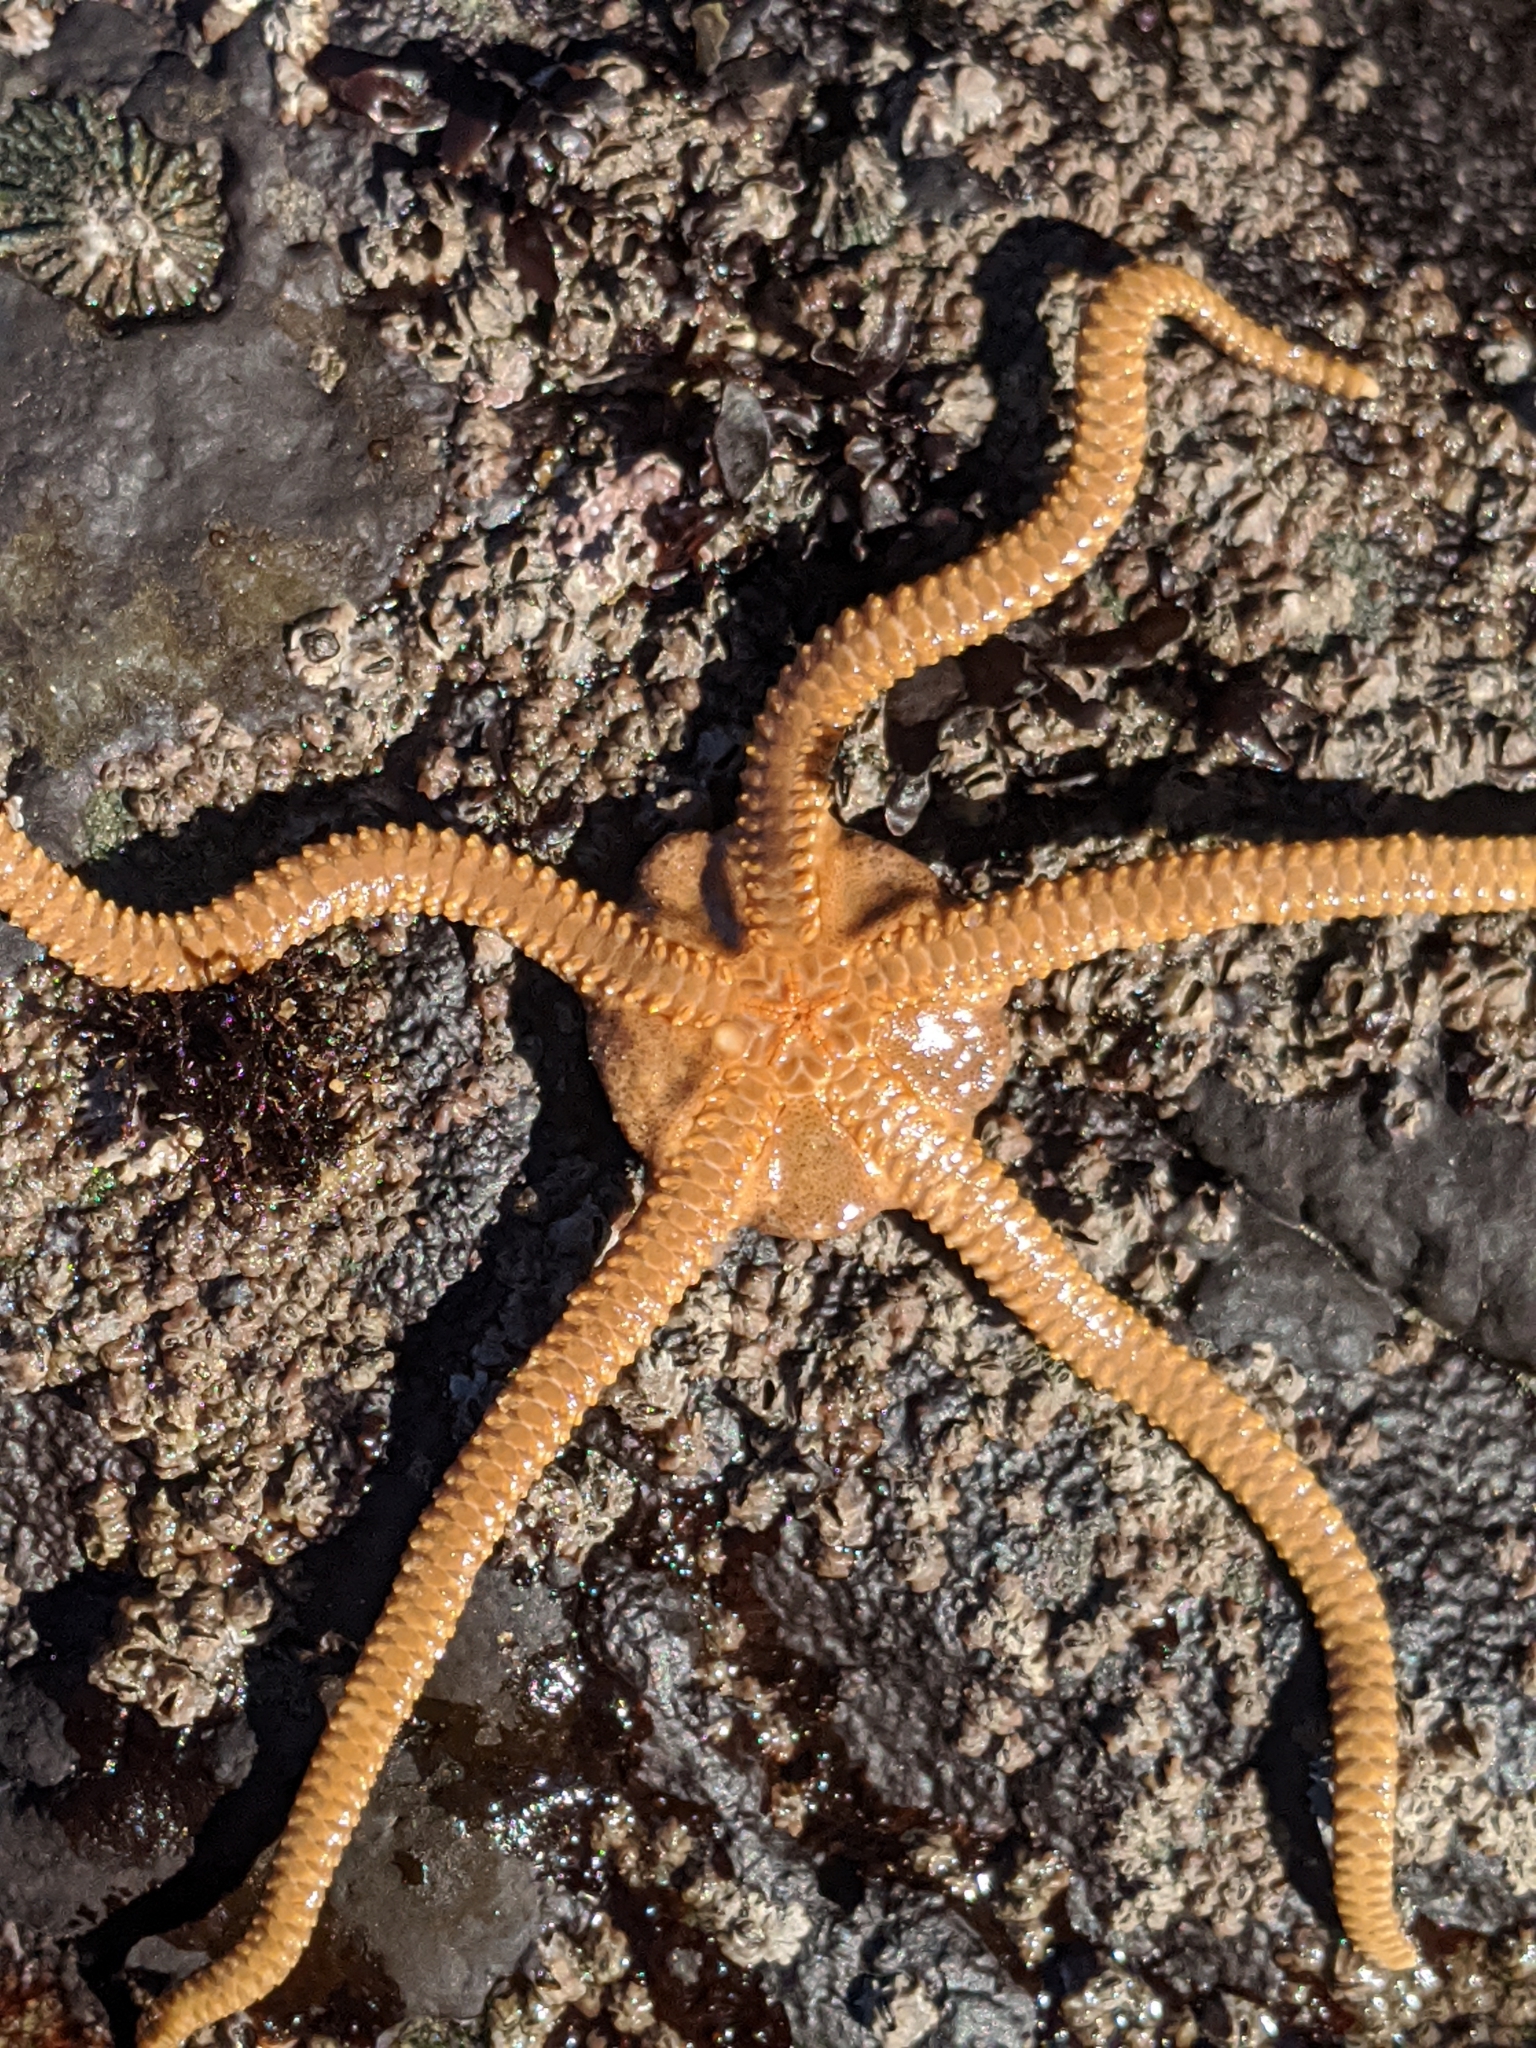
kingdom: Animalia
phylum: Echinodermata
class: Ophiuroidea
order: Amphilepidida
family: Hemieuryalidae
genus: Ophioplocus
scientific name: Ophioplocus esmarki
